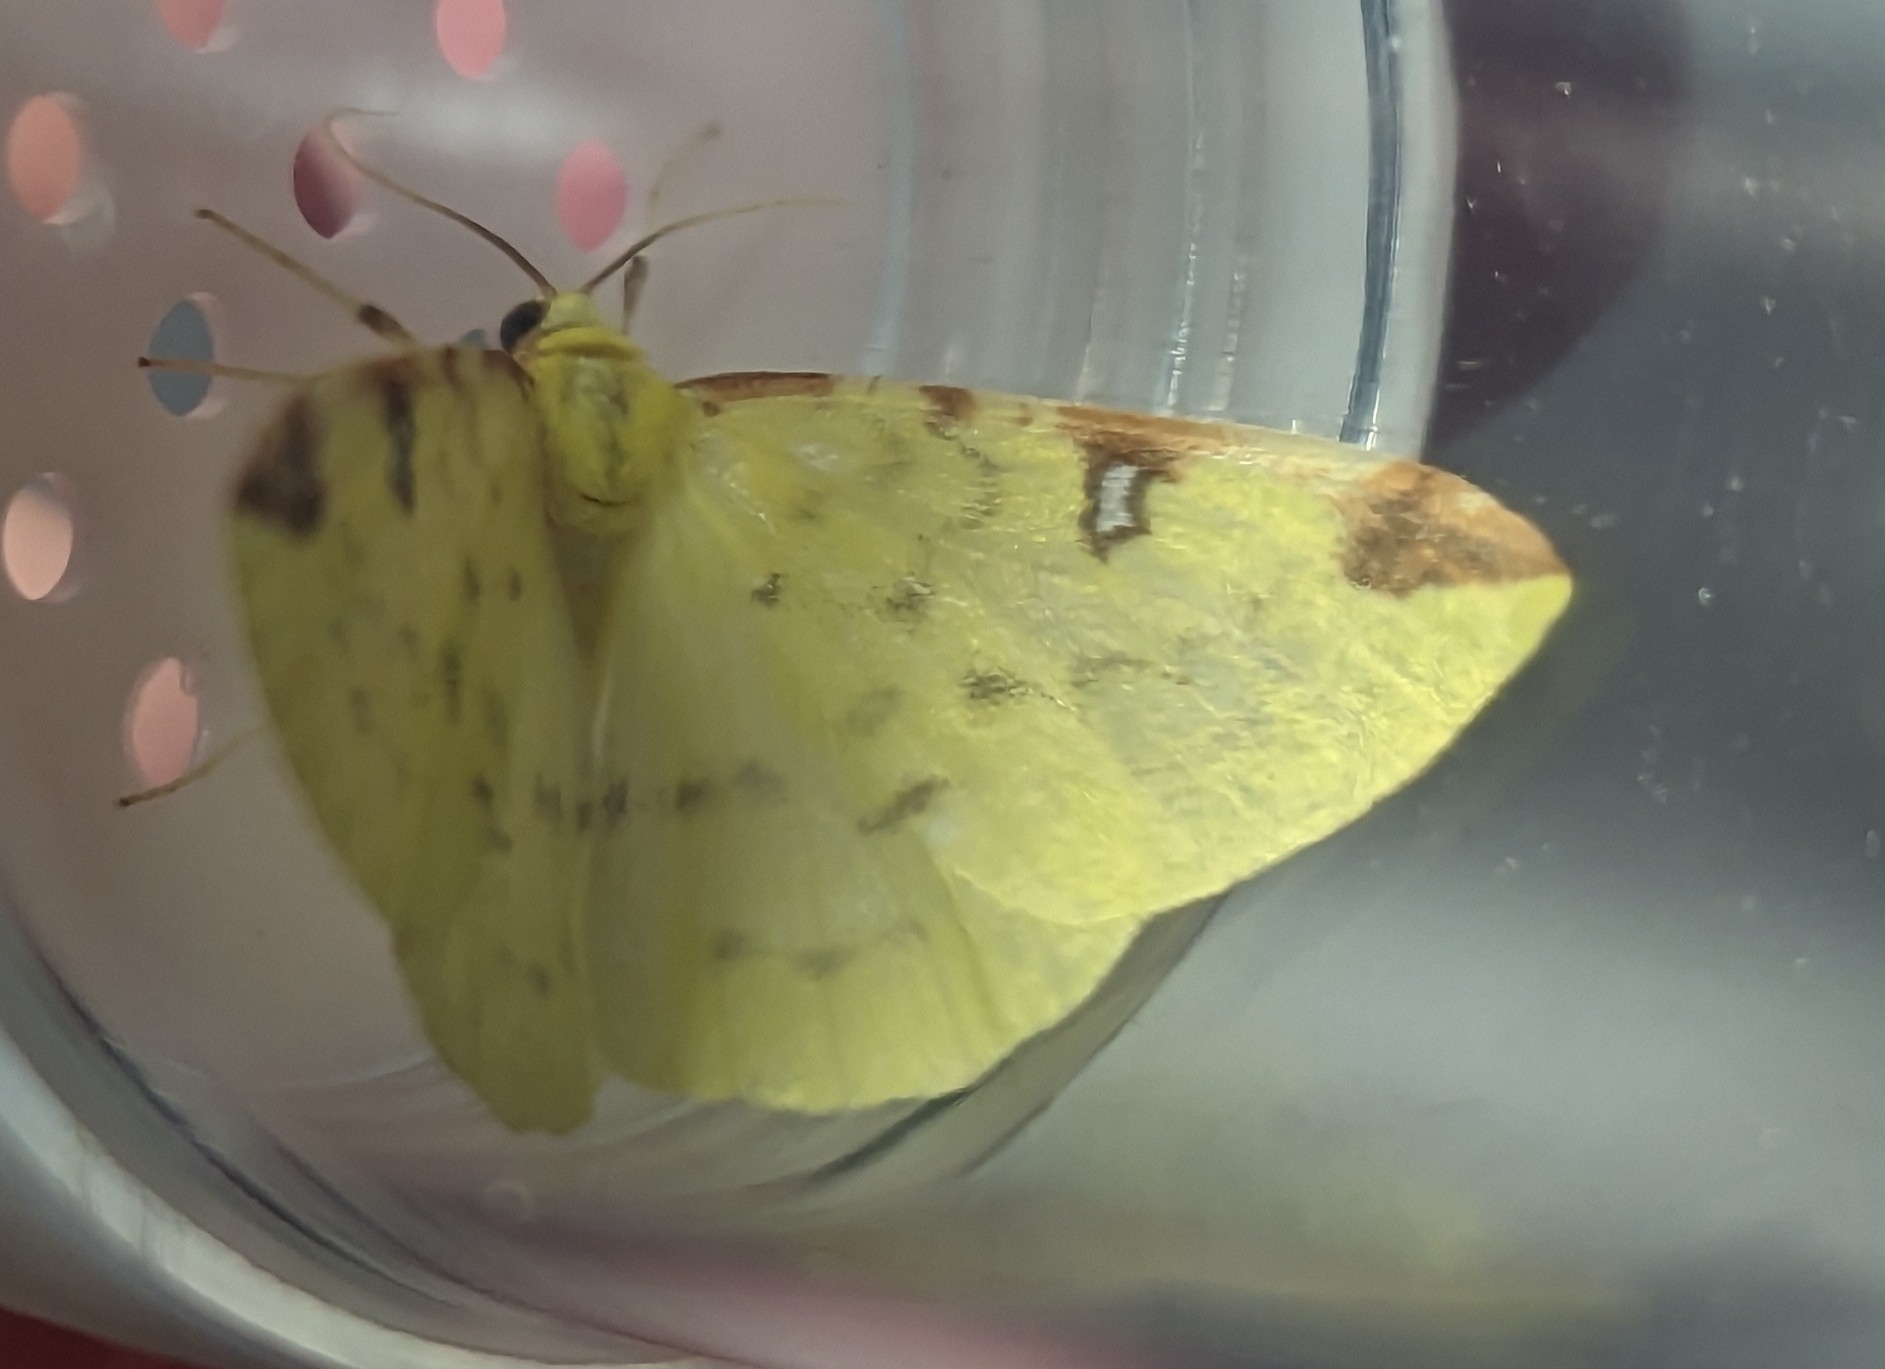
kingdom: Animalia
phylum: Arthropoda
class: Insecta
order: Lepidoptera
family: Geometridae
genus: Opisthograptis
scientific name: Opisthograptis luteolata
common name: Brimstone moth
